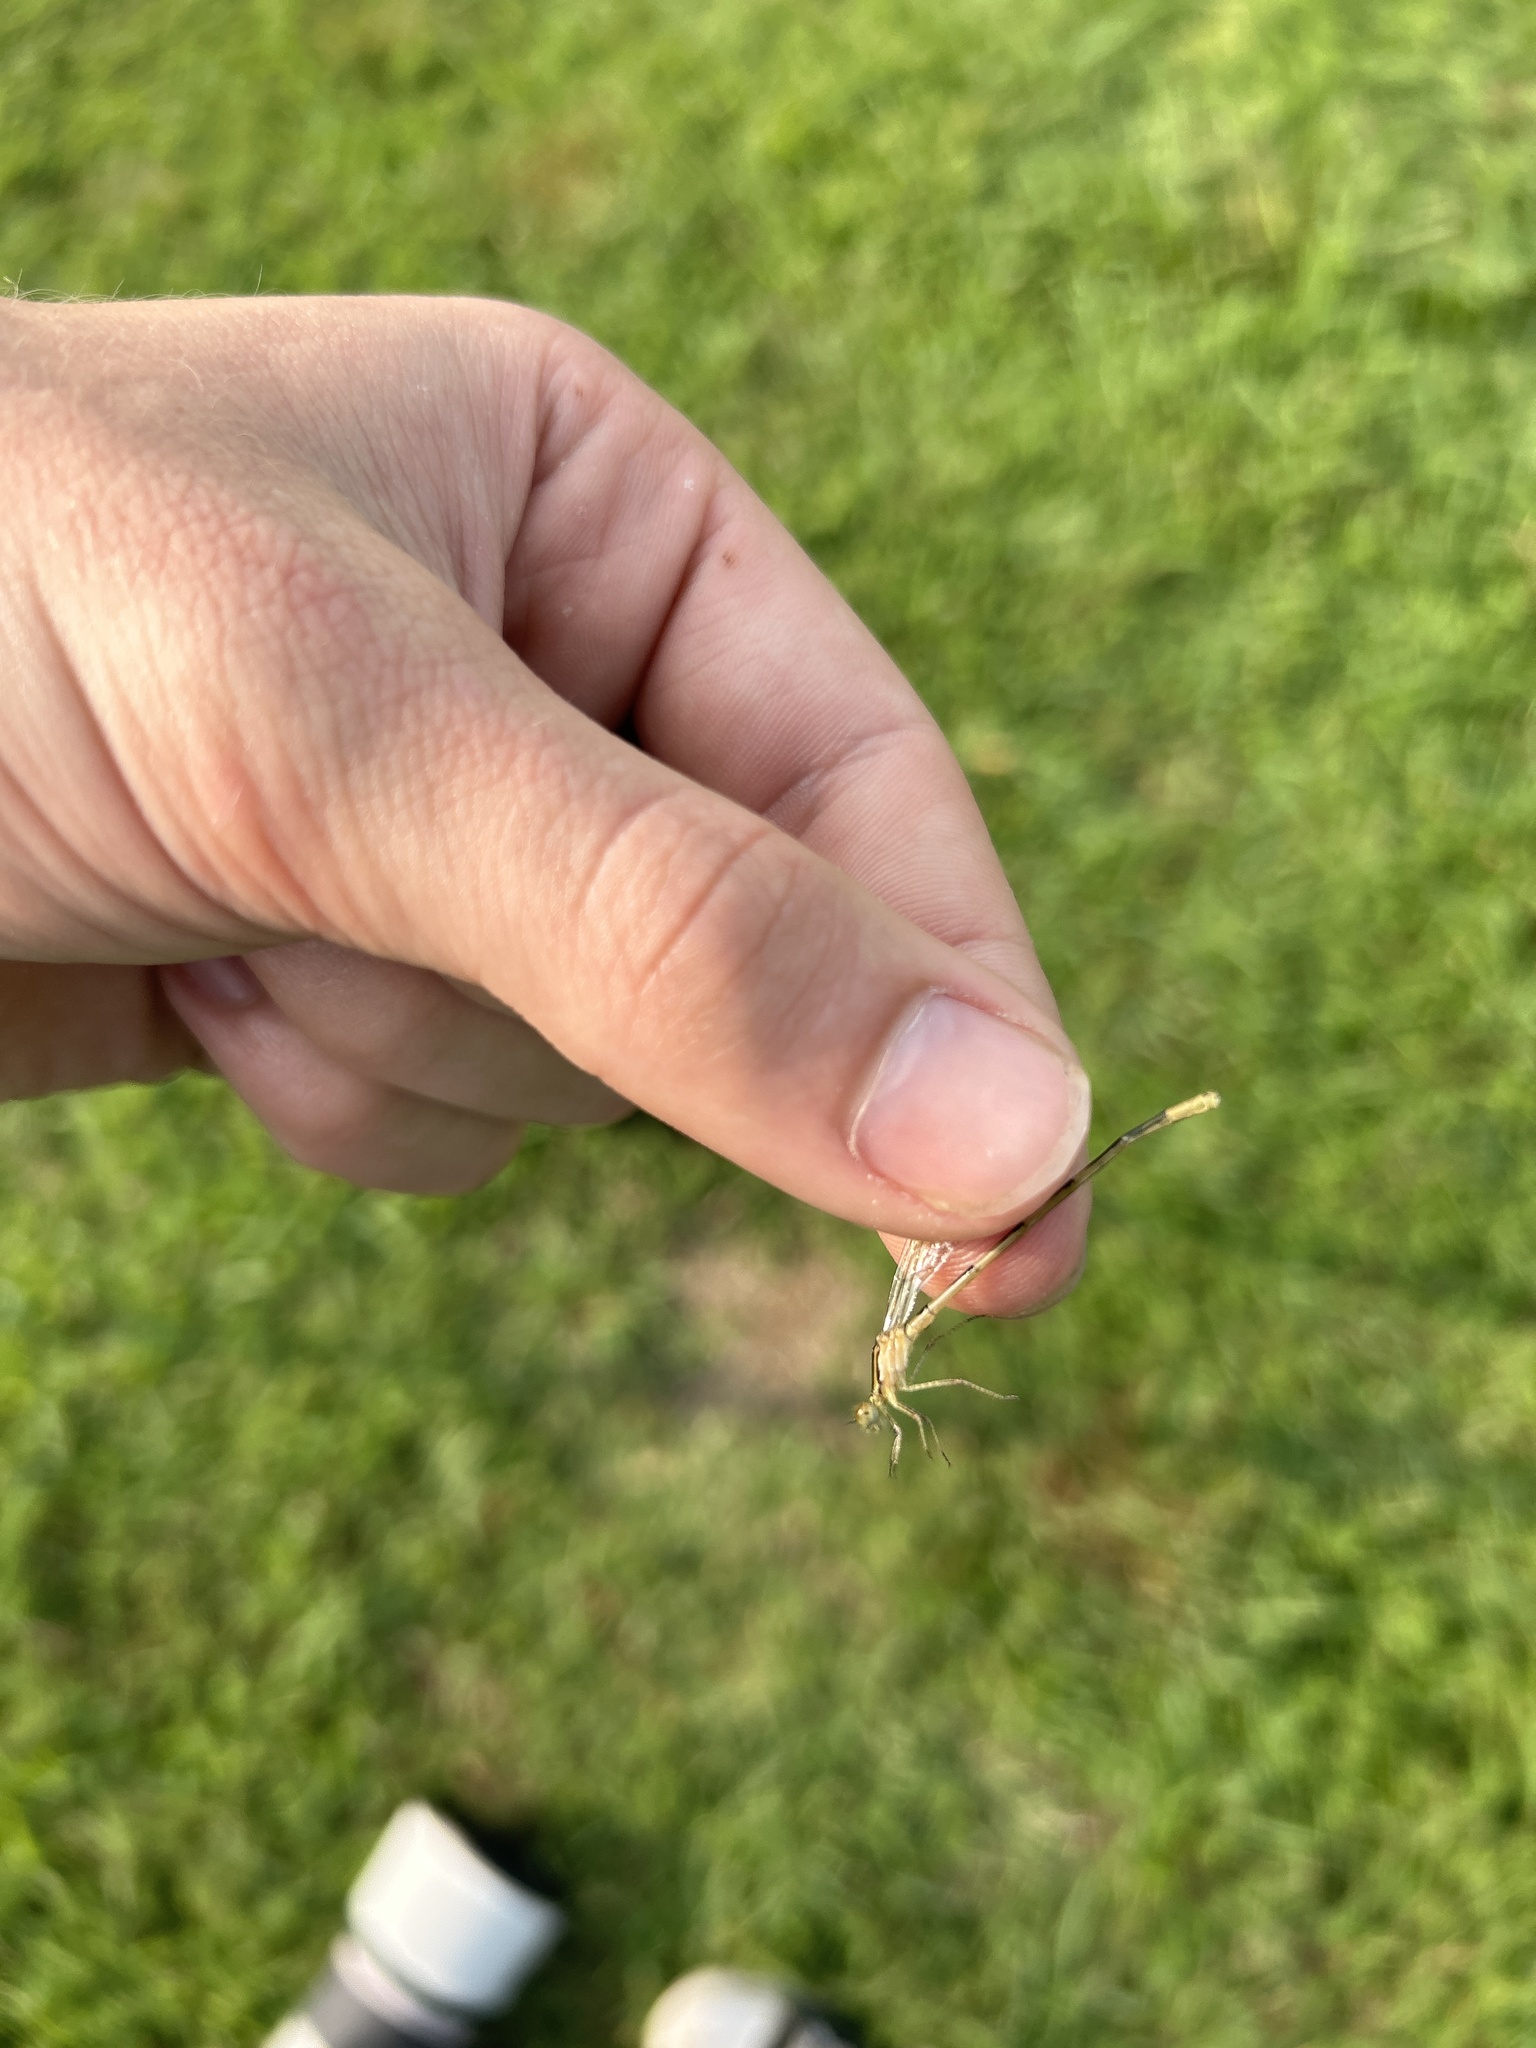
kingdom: Animalia
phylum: Arthropoda
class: Insecta
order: Odonata
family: Coenagrionidae
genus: Enallagma
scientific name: Enallagma durum
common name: Big bluet
